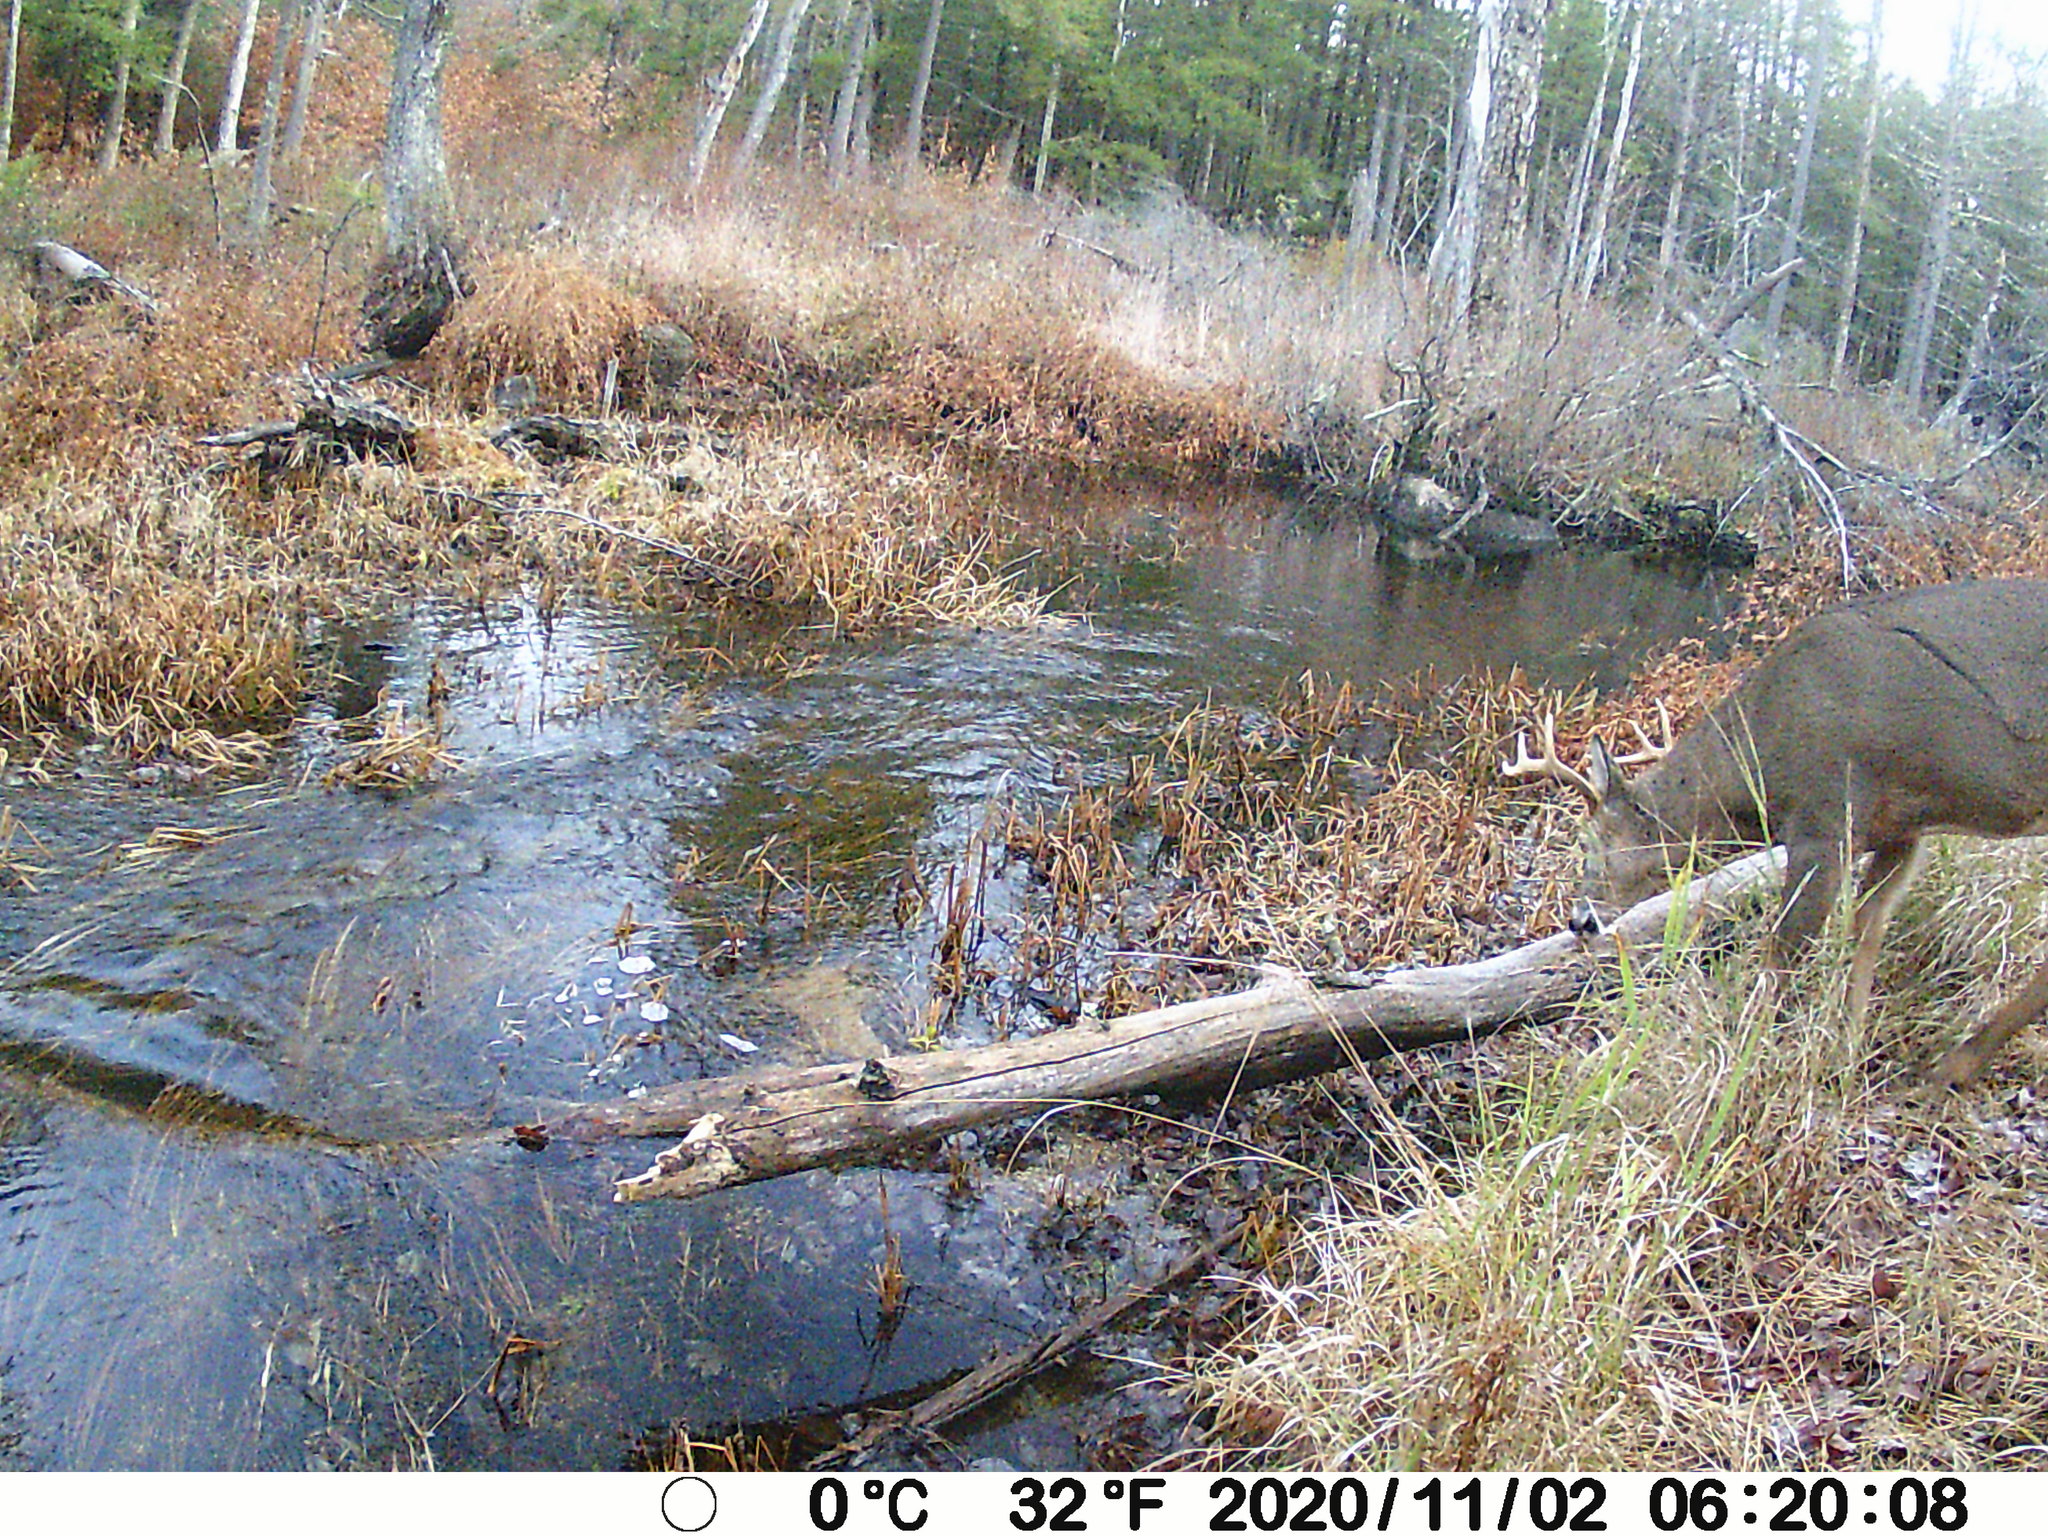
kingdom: Animalia
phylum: Chordata
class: Mammalia
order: Artiodactyla
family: Cervidae
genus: Odocoileus
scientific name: Odocoileus virginianus
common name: White-tailed deer
